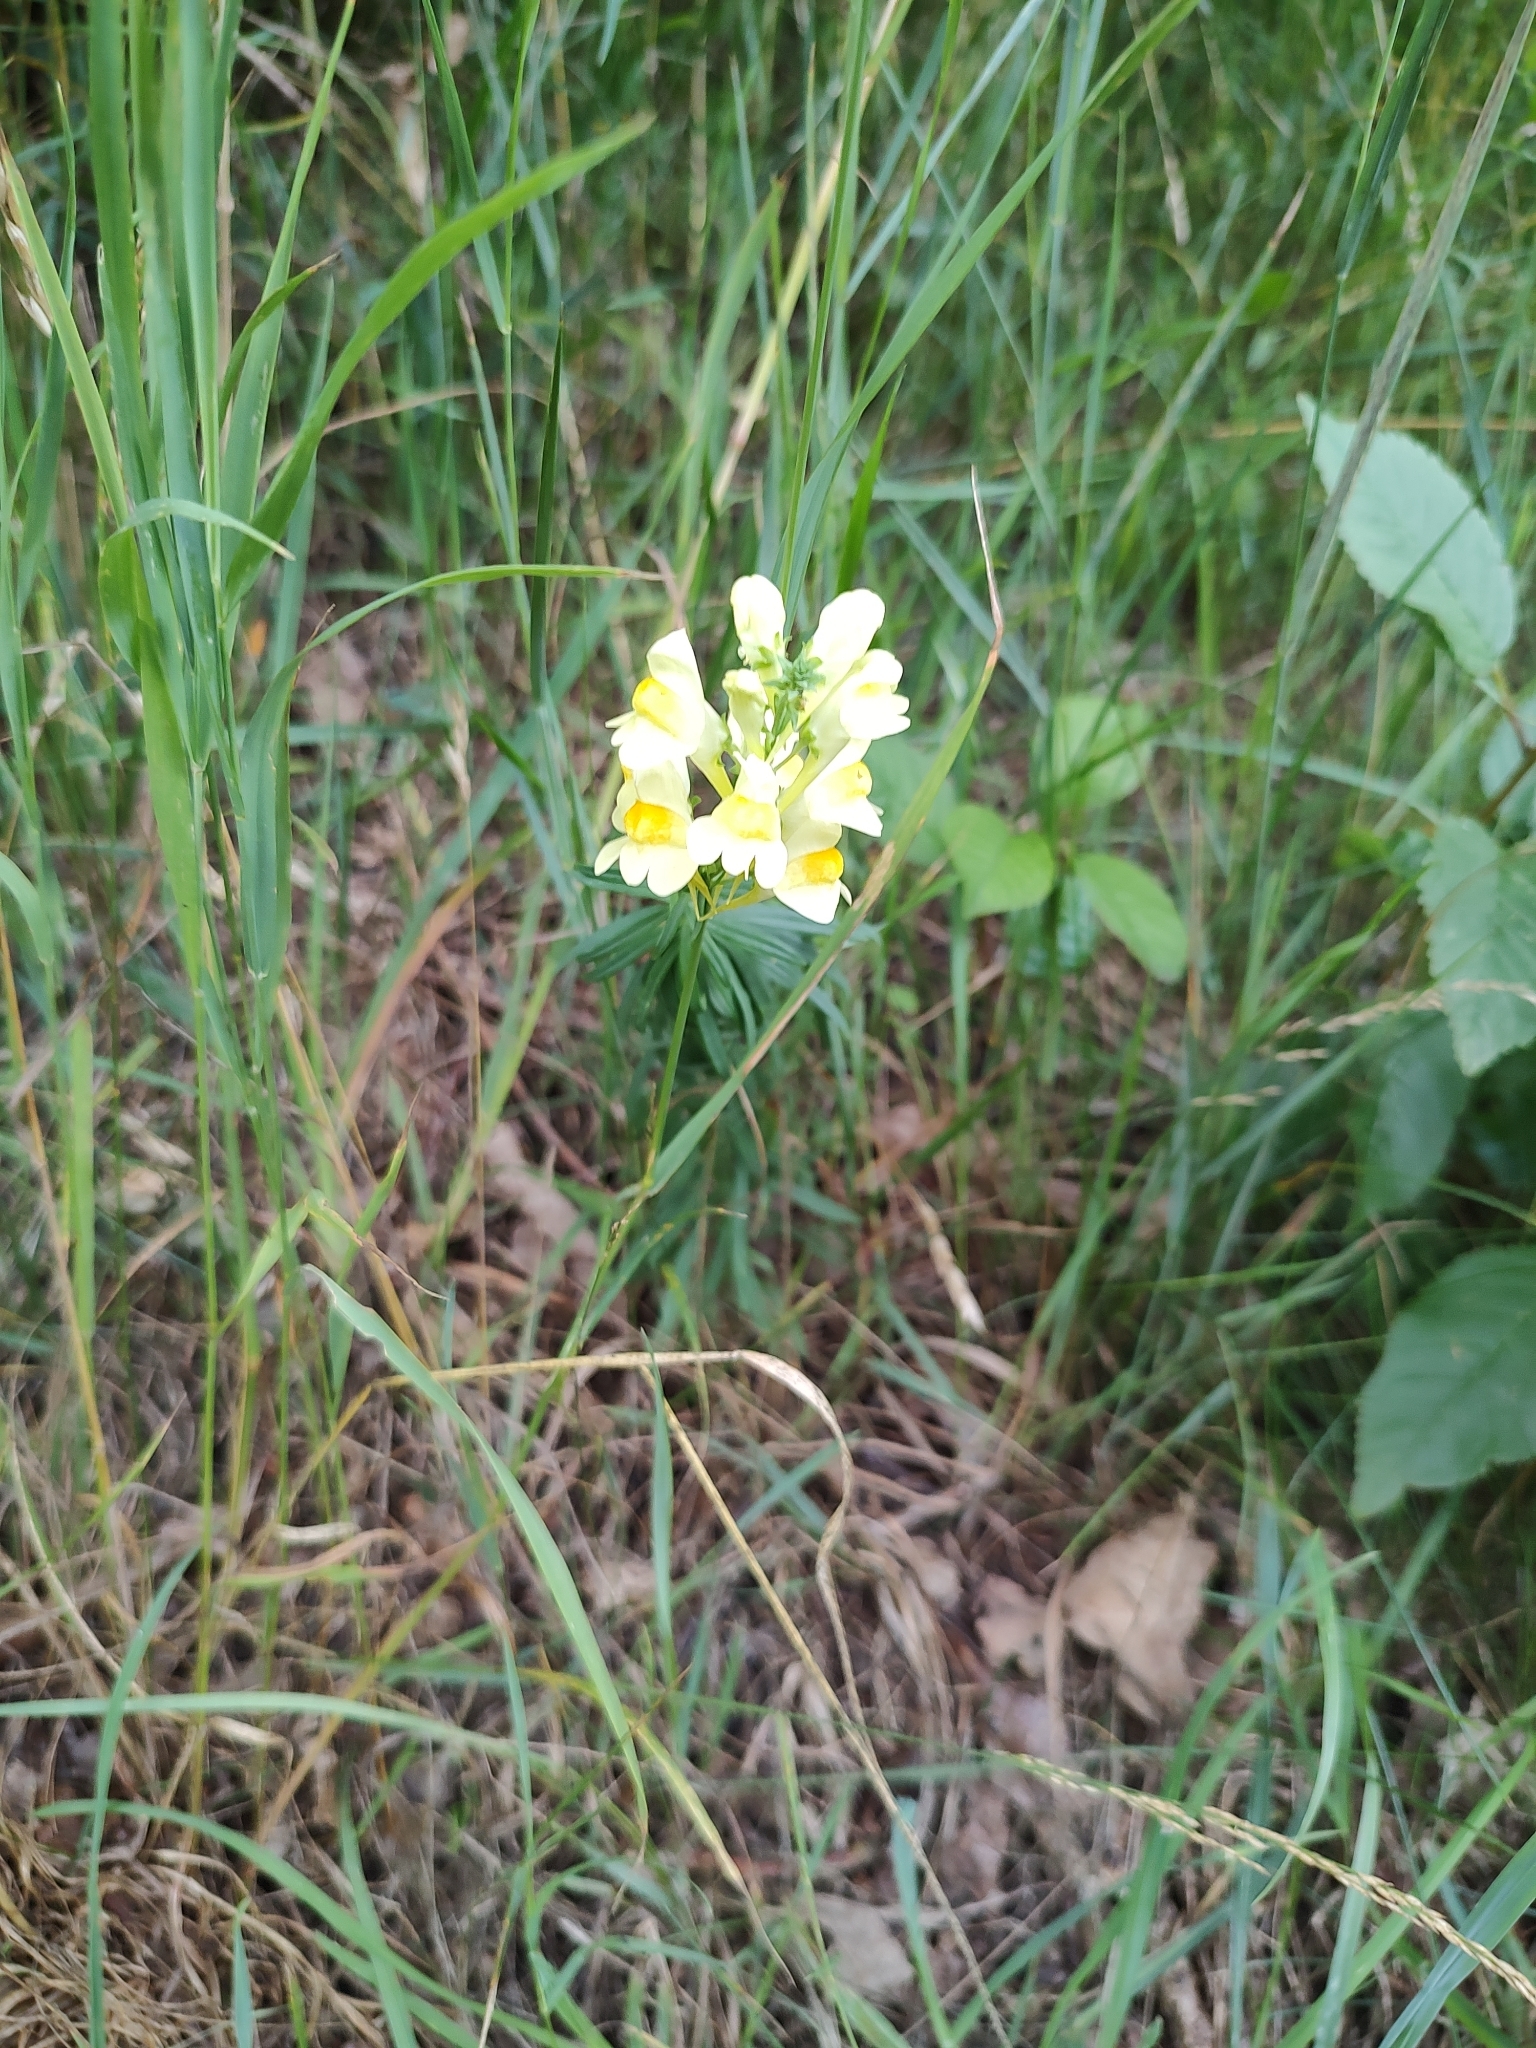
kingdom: Plantae
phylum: Tracheophyta
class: Magnoliopsida
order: Lamiales
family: Plantaginaceae
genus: Linaria
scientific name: Linaria vulgaris
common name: Butter and eggs
